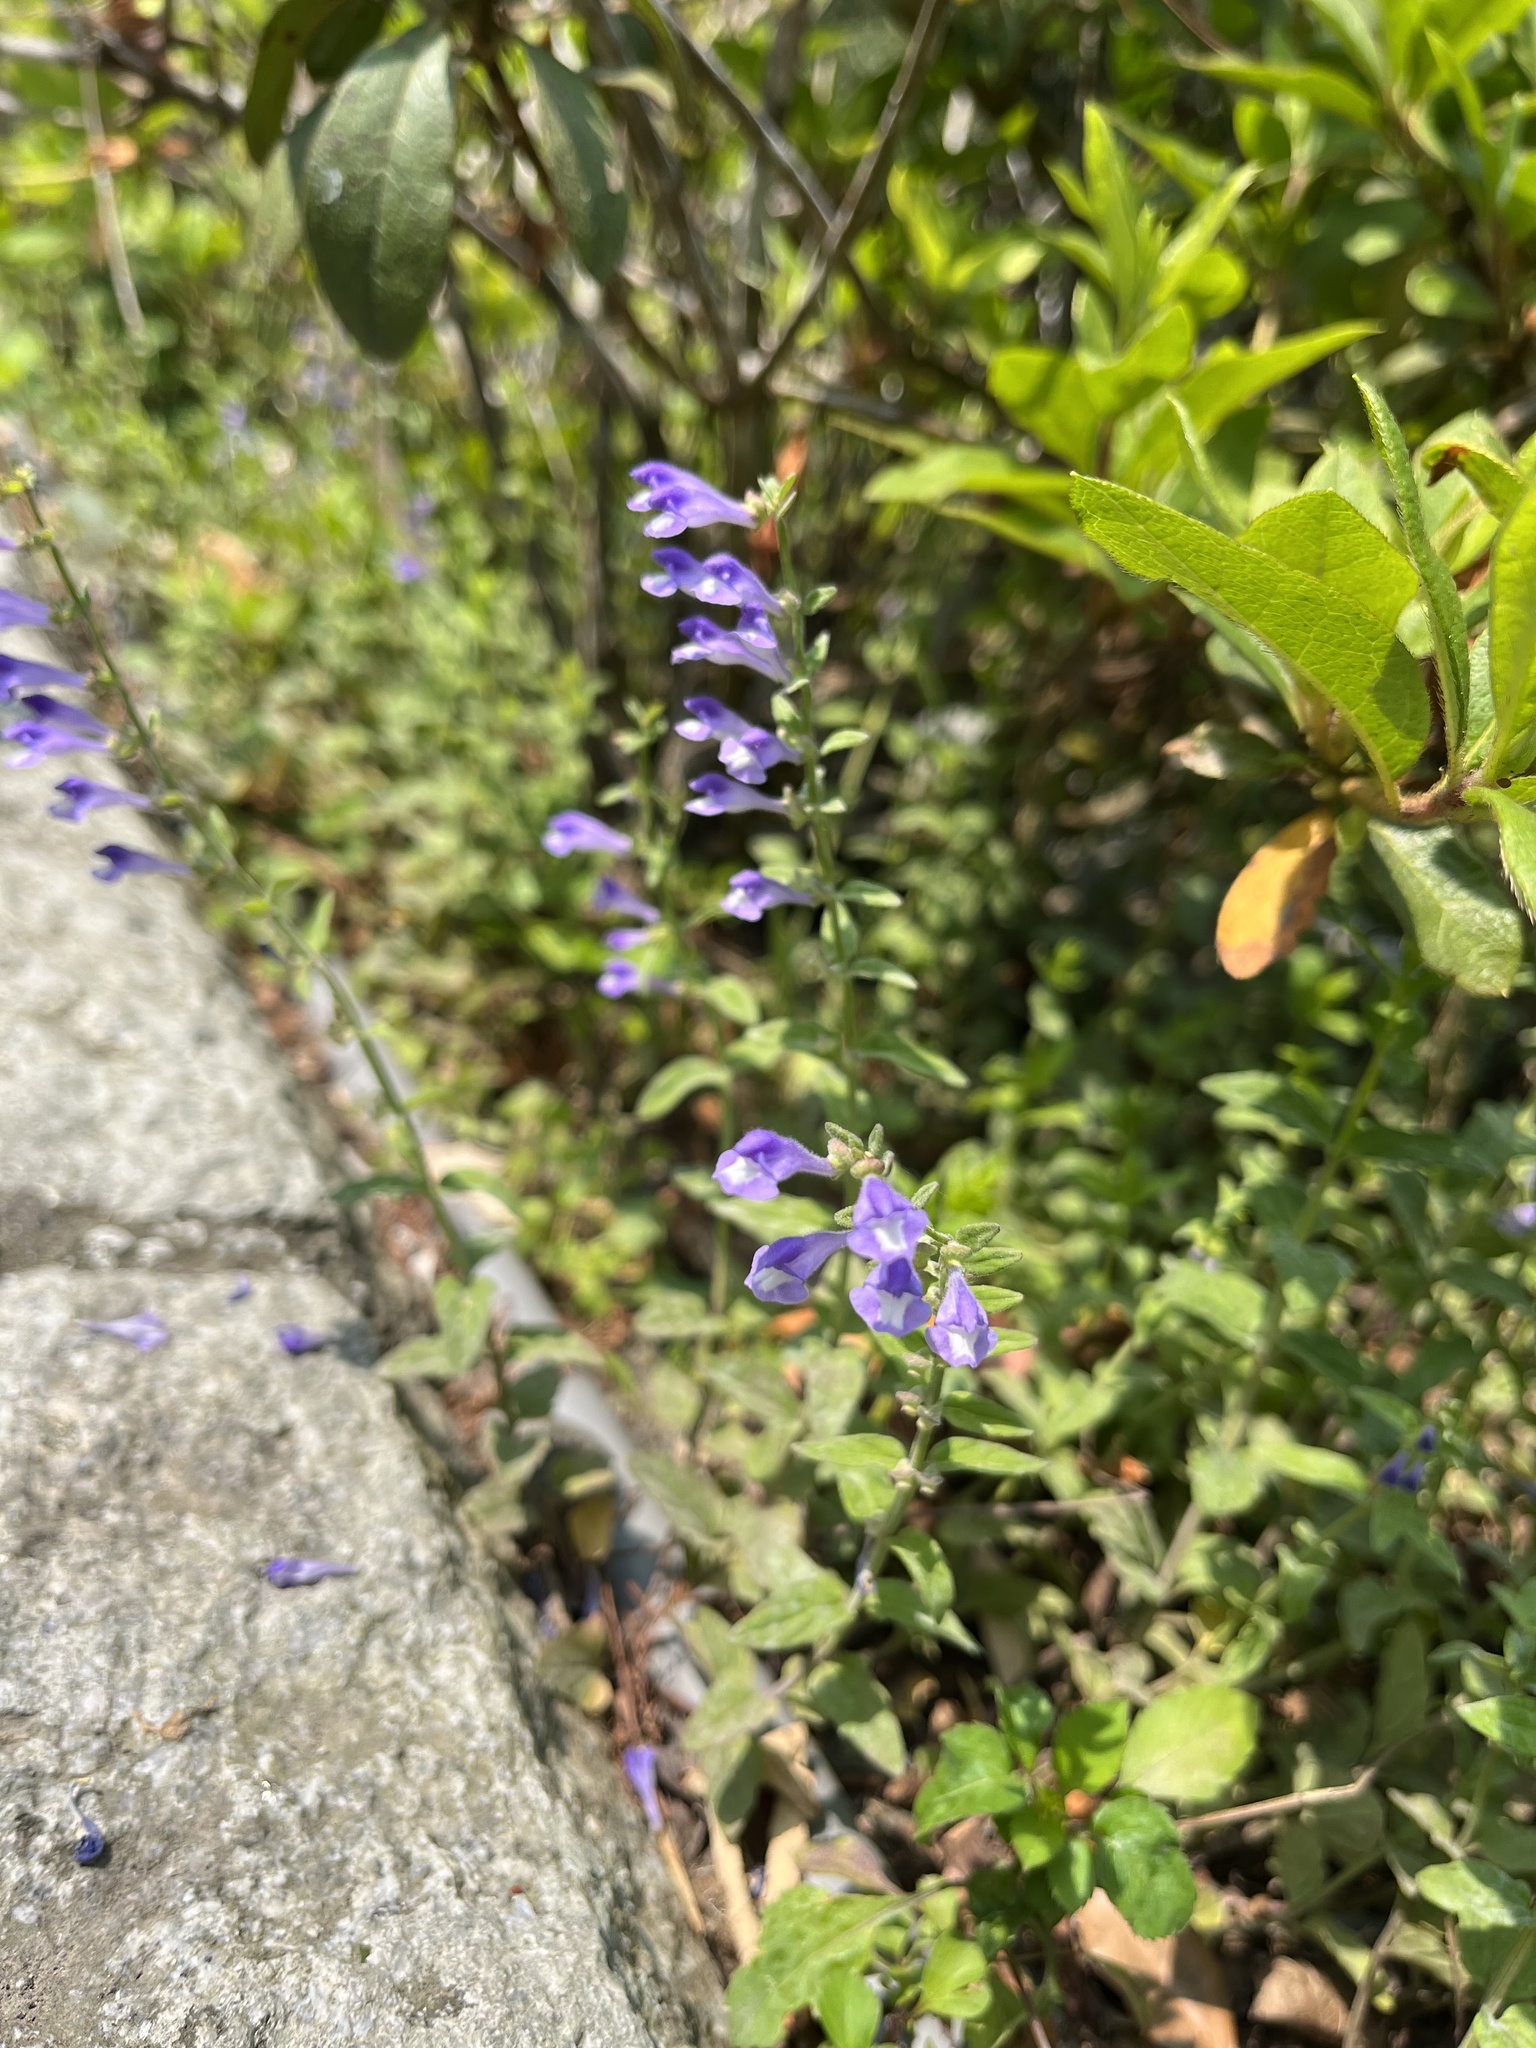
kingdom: Plantae
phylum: Tracheophyta
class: Magnoliopsida
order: Lamiales
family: Lamiaceae
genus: Scutellaria
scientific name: Scutellaria barbata
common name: Barbed skullcap
